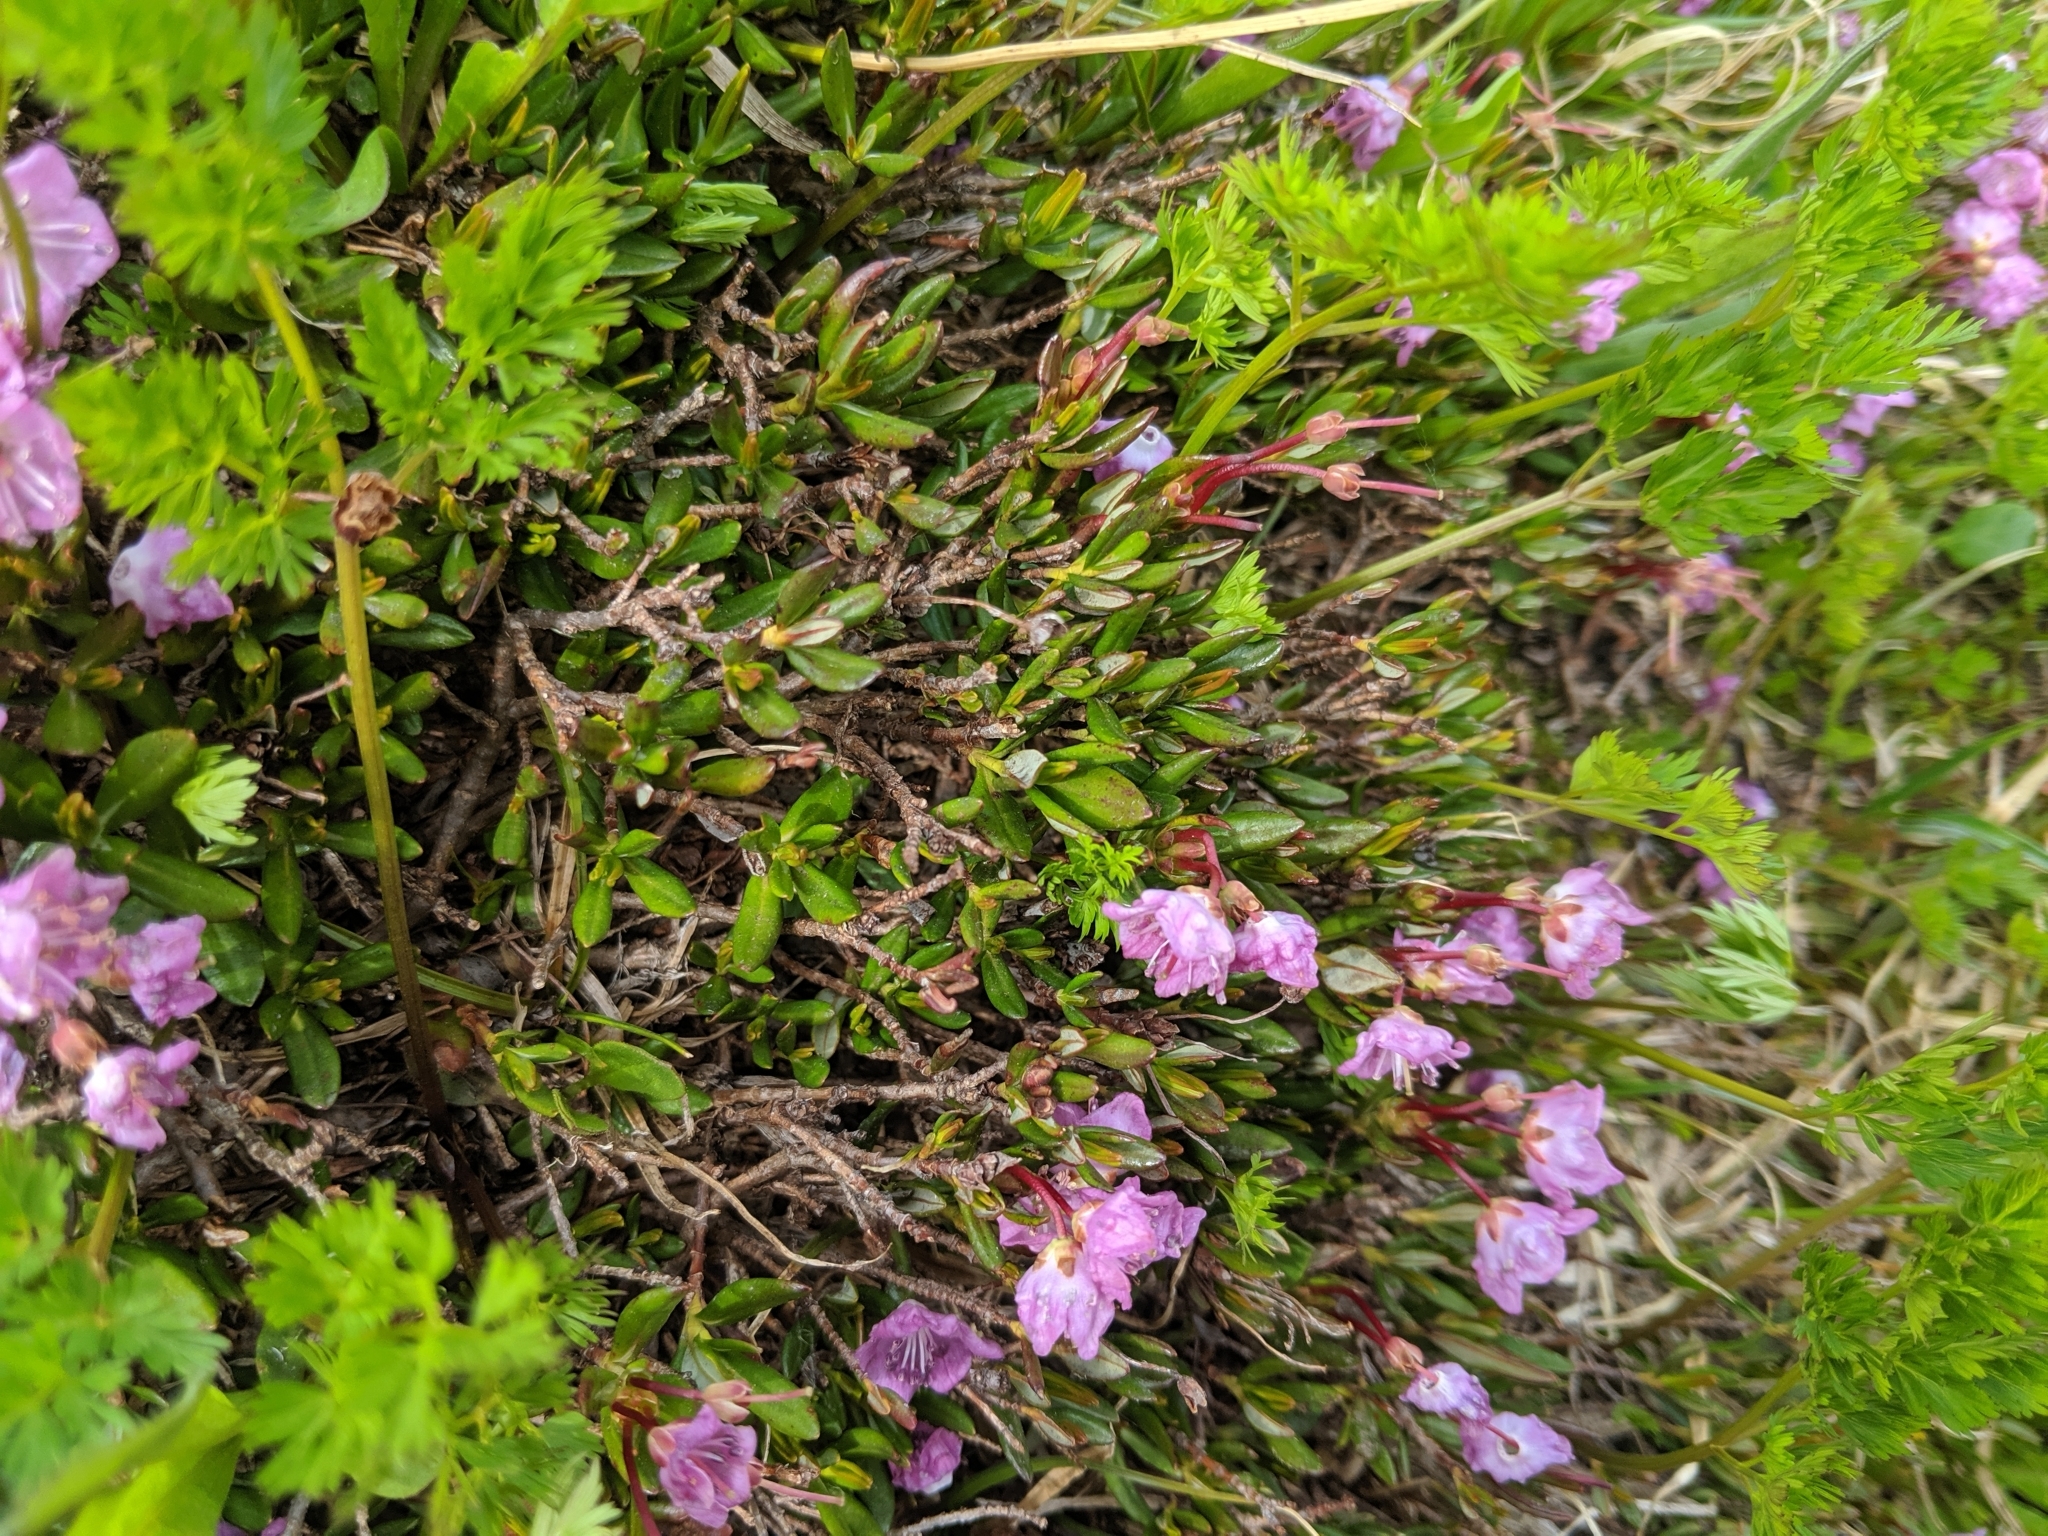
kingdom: Plantae
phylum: Tracheophyta
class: Magnoliopsida
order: Ericales
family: Ericaceae
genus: Kalmia
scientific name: Kalmia microphylla
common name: Alpine bog laurel
